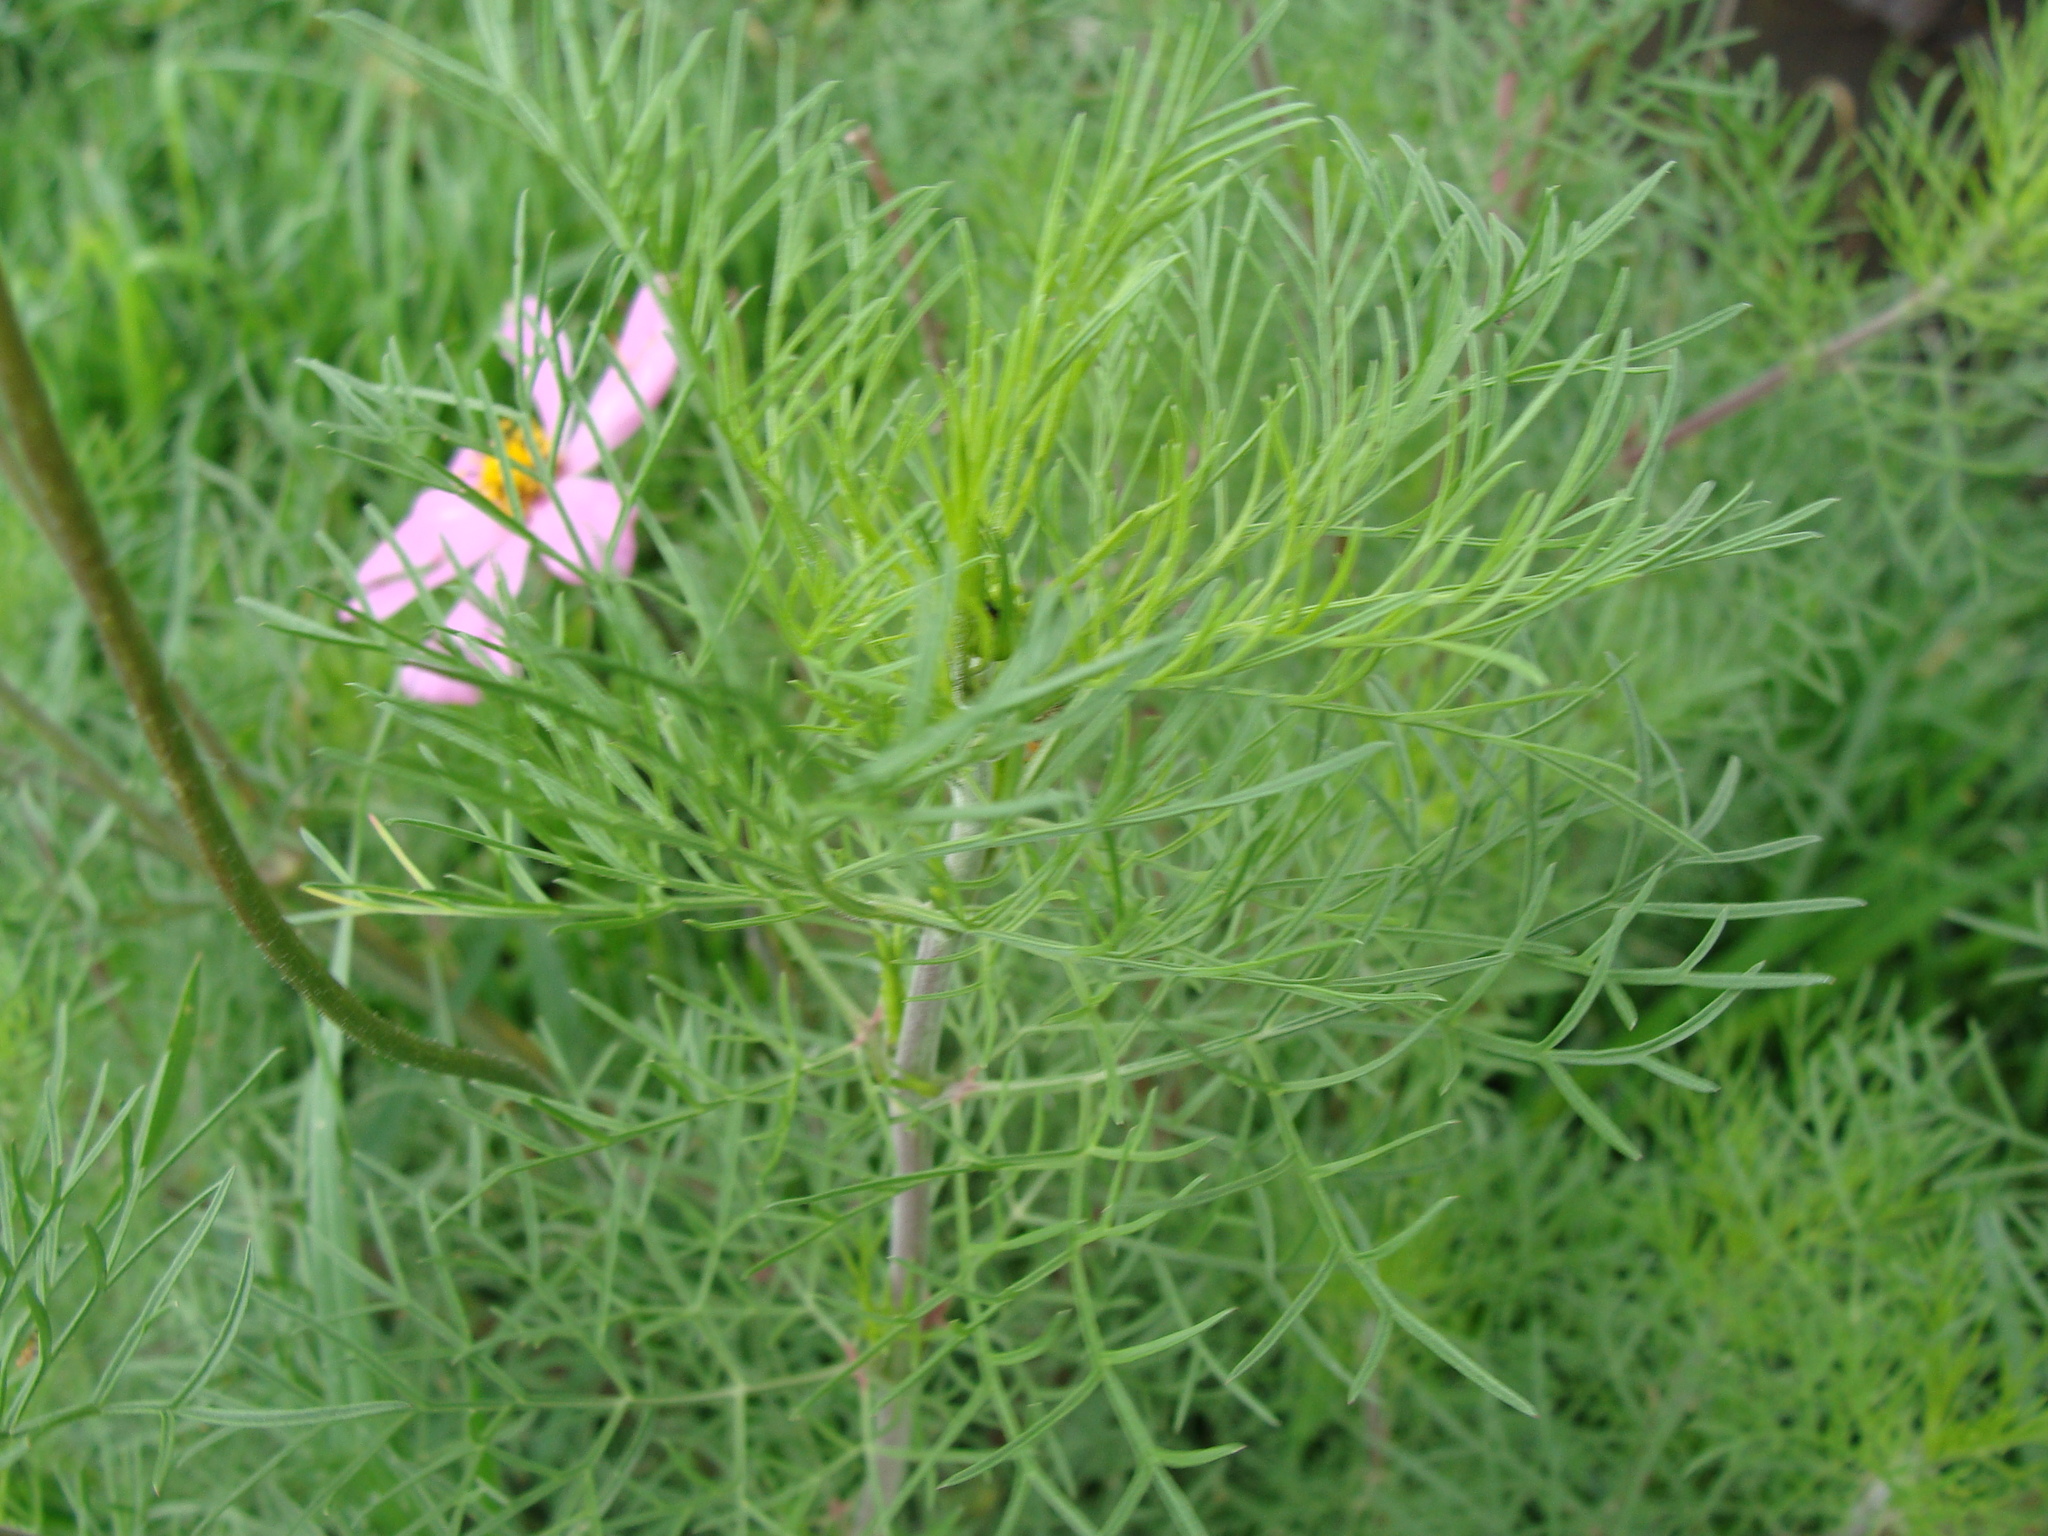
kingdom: Plantae
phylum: Tracheophyta
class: Magnoliopsida
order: Asterales
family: Asteraceae
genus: Cosmos
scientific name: Cosmos bipinnatus
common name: Garden cosmos
